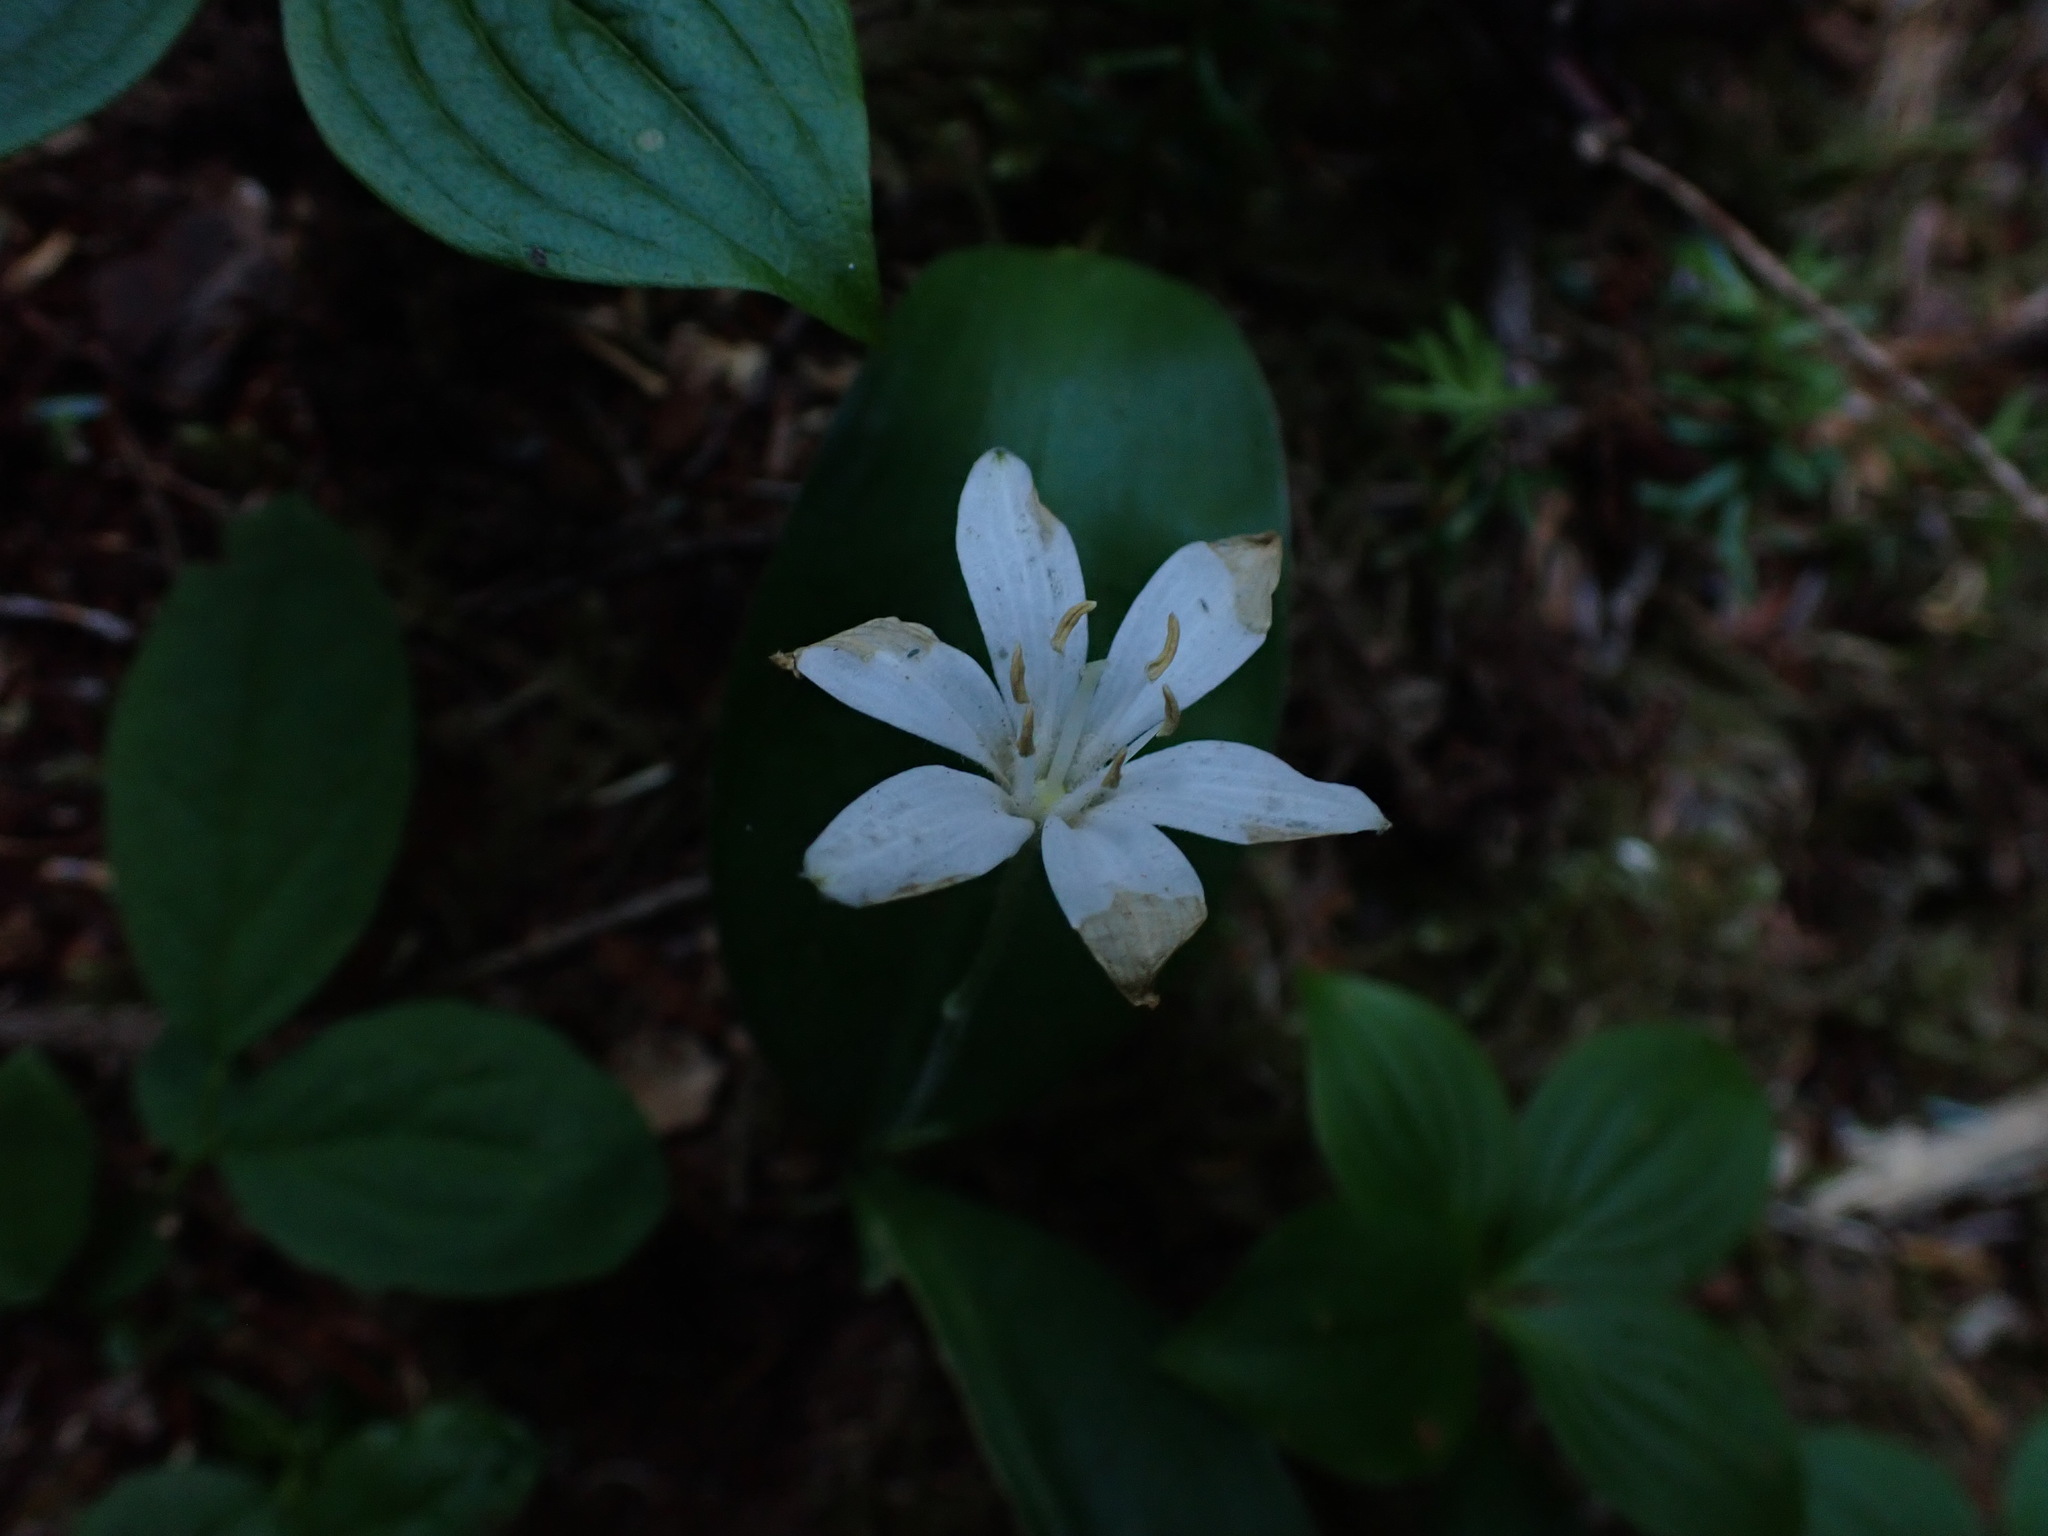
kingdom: Plantae
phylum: Tracheophyta
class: Liliopsida
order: Liliales
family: Liliaceae
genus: Clintonia
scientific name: Clintonia uniflora
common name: Queen's cup
